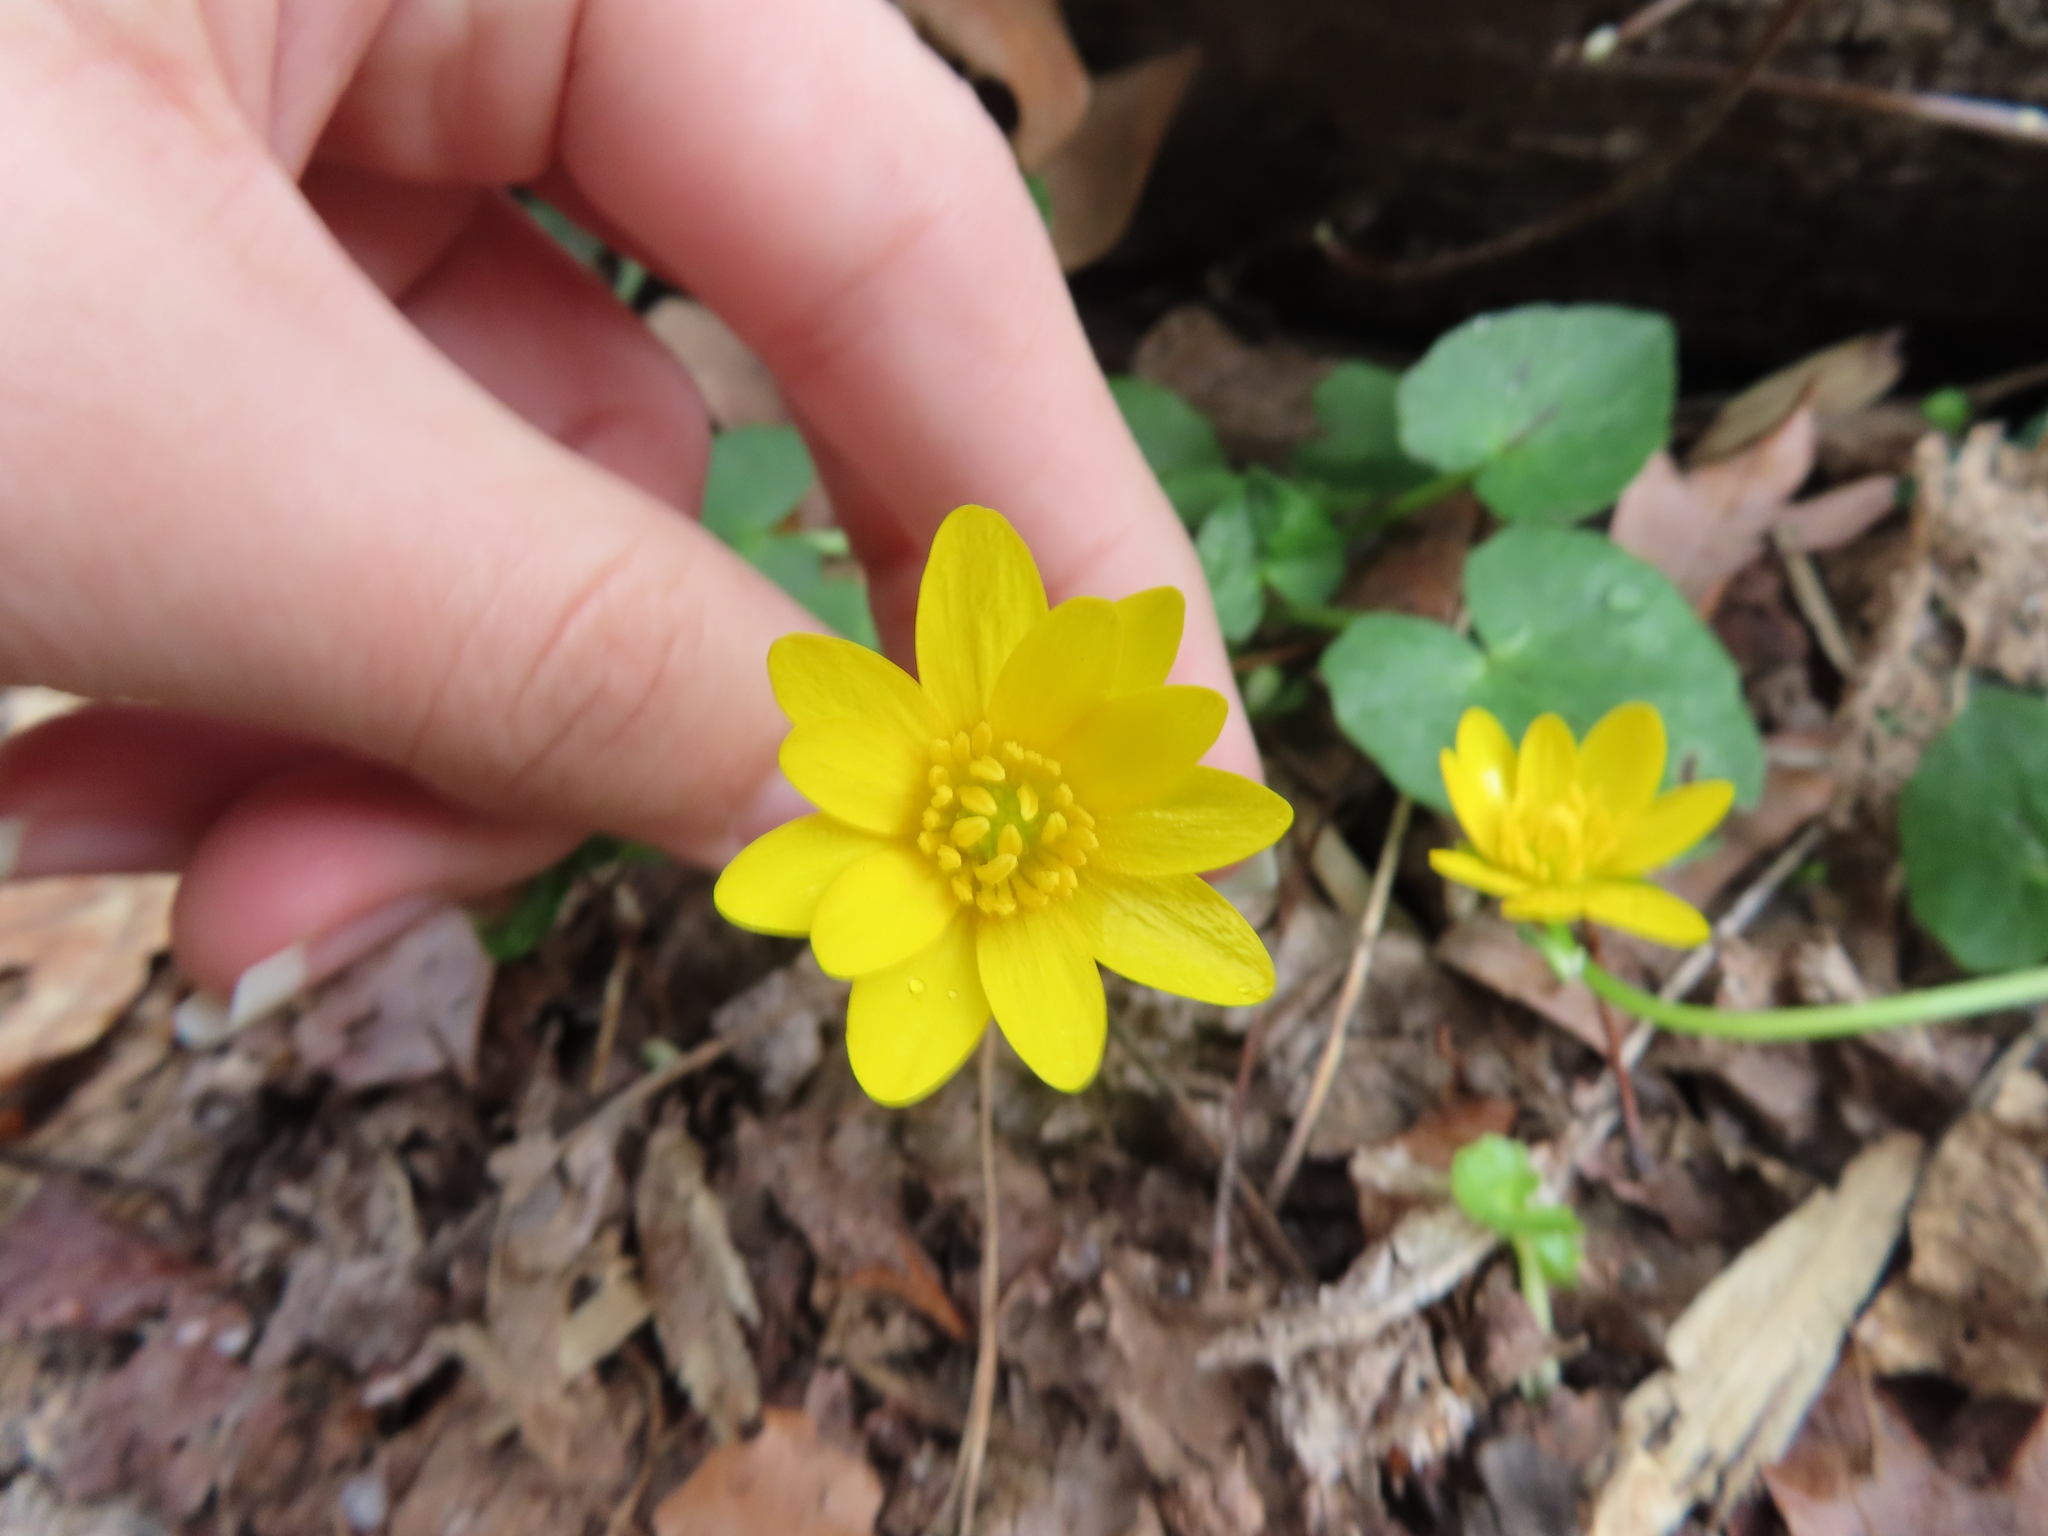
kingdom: Plantae
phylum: Tracheophyta
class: Magnoliopsida
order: Ranunculales
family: Ranunculaceae
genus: Ficaria
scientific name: Ficaria verna
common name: Lesser celandine
